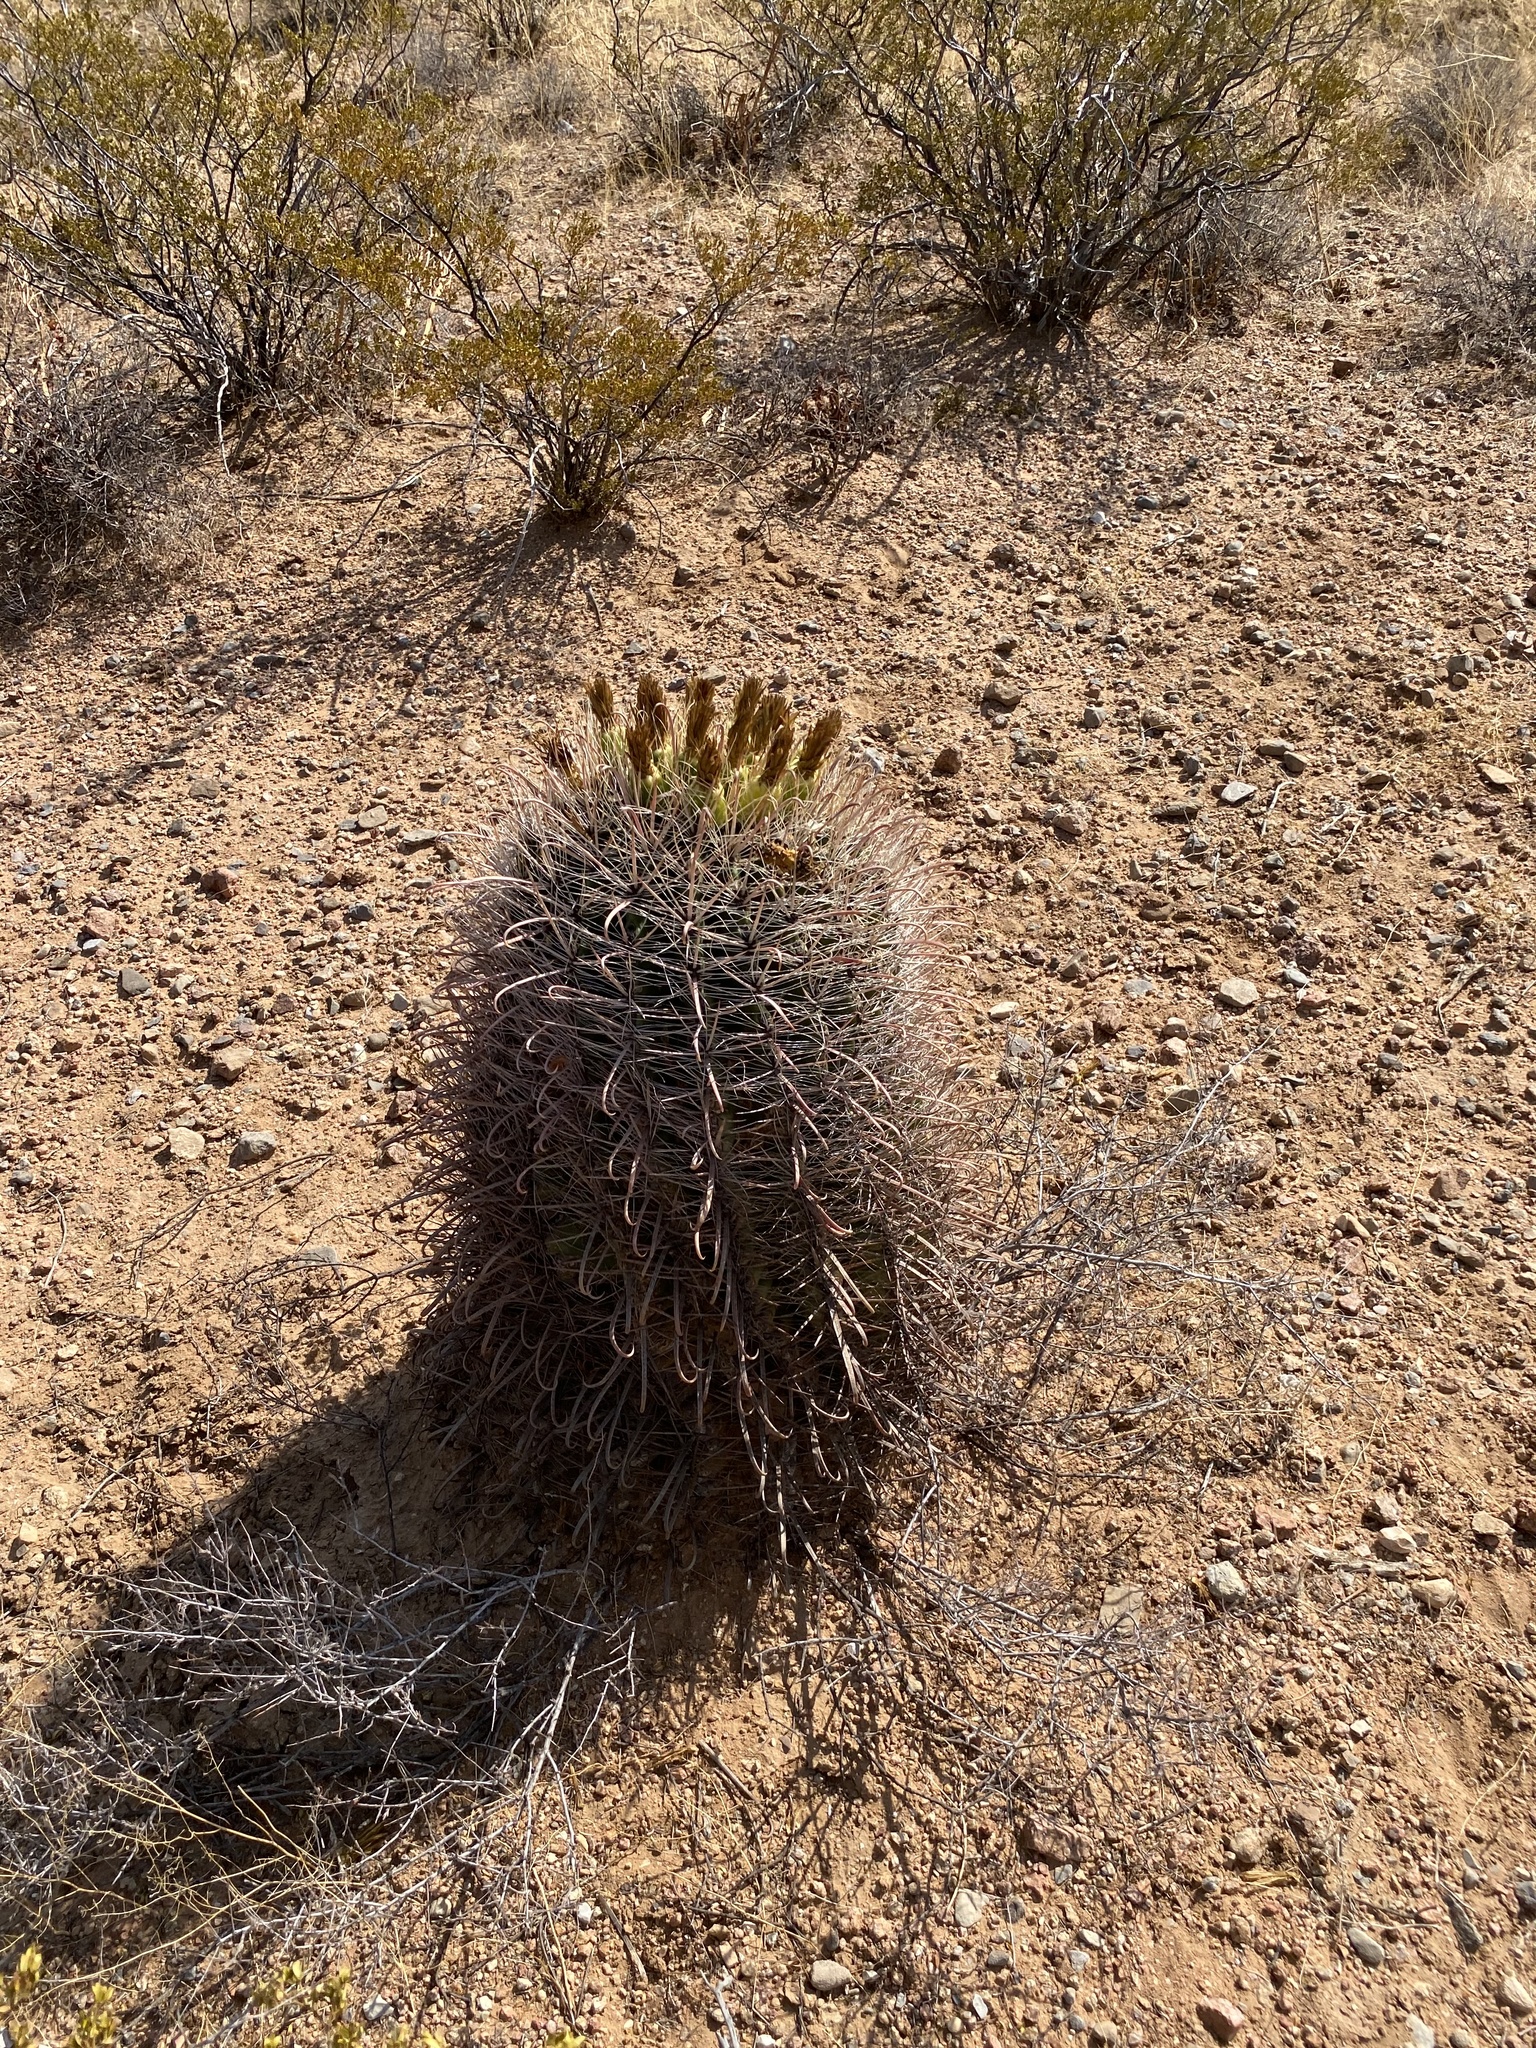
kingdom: Plantae
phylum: Tracheophyta
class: Magnoliopsida
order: Caryophyllales
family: Cactaceae
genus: Ferocactus
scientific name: Ferocactus wislizeni
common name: Candy barrel cactus
